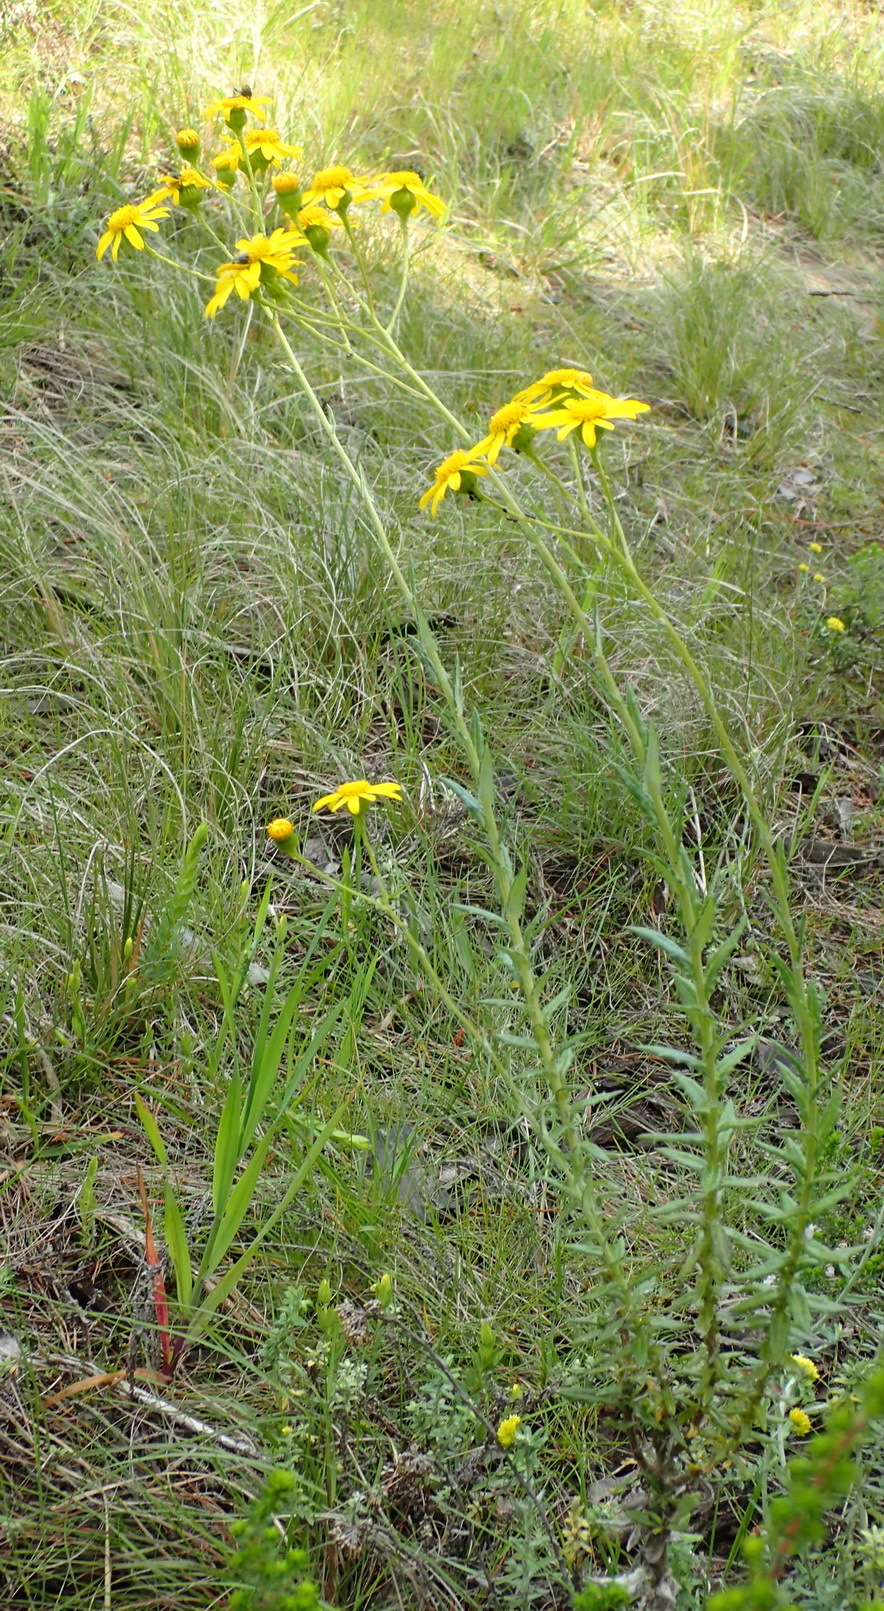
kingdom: Plantae
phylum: Tracheophyta
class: Magnoliopsida
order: Asterales
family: Asteraceae
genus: Senecio
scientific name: Senecio ilicifolius
